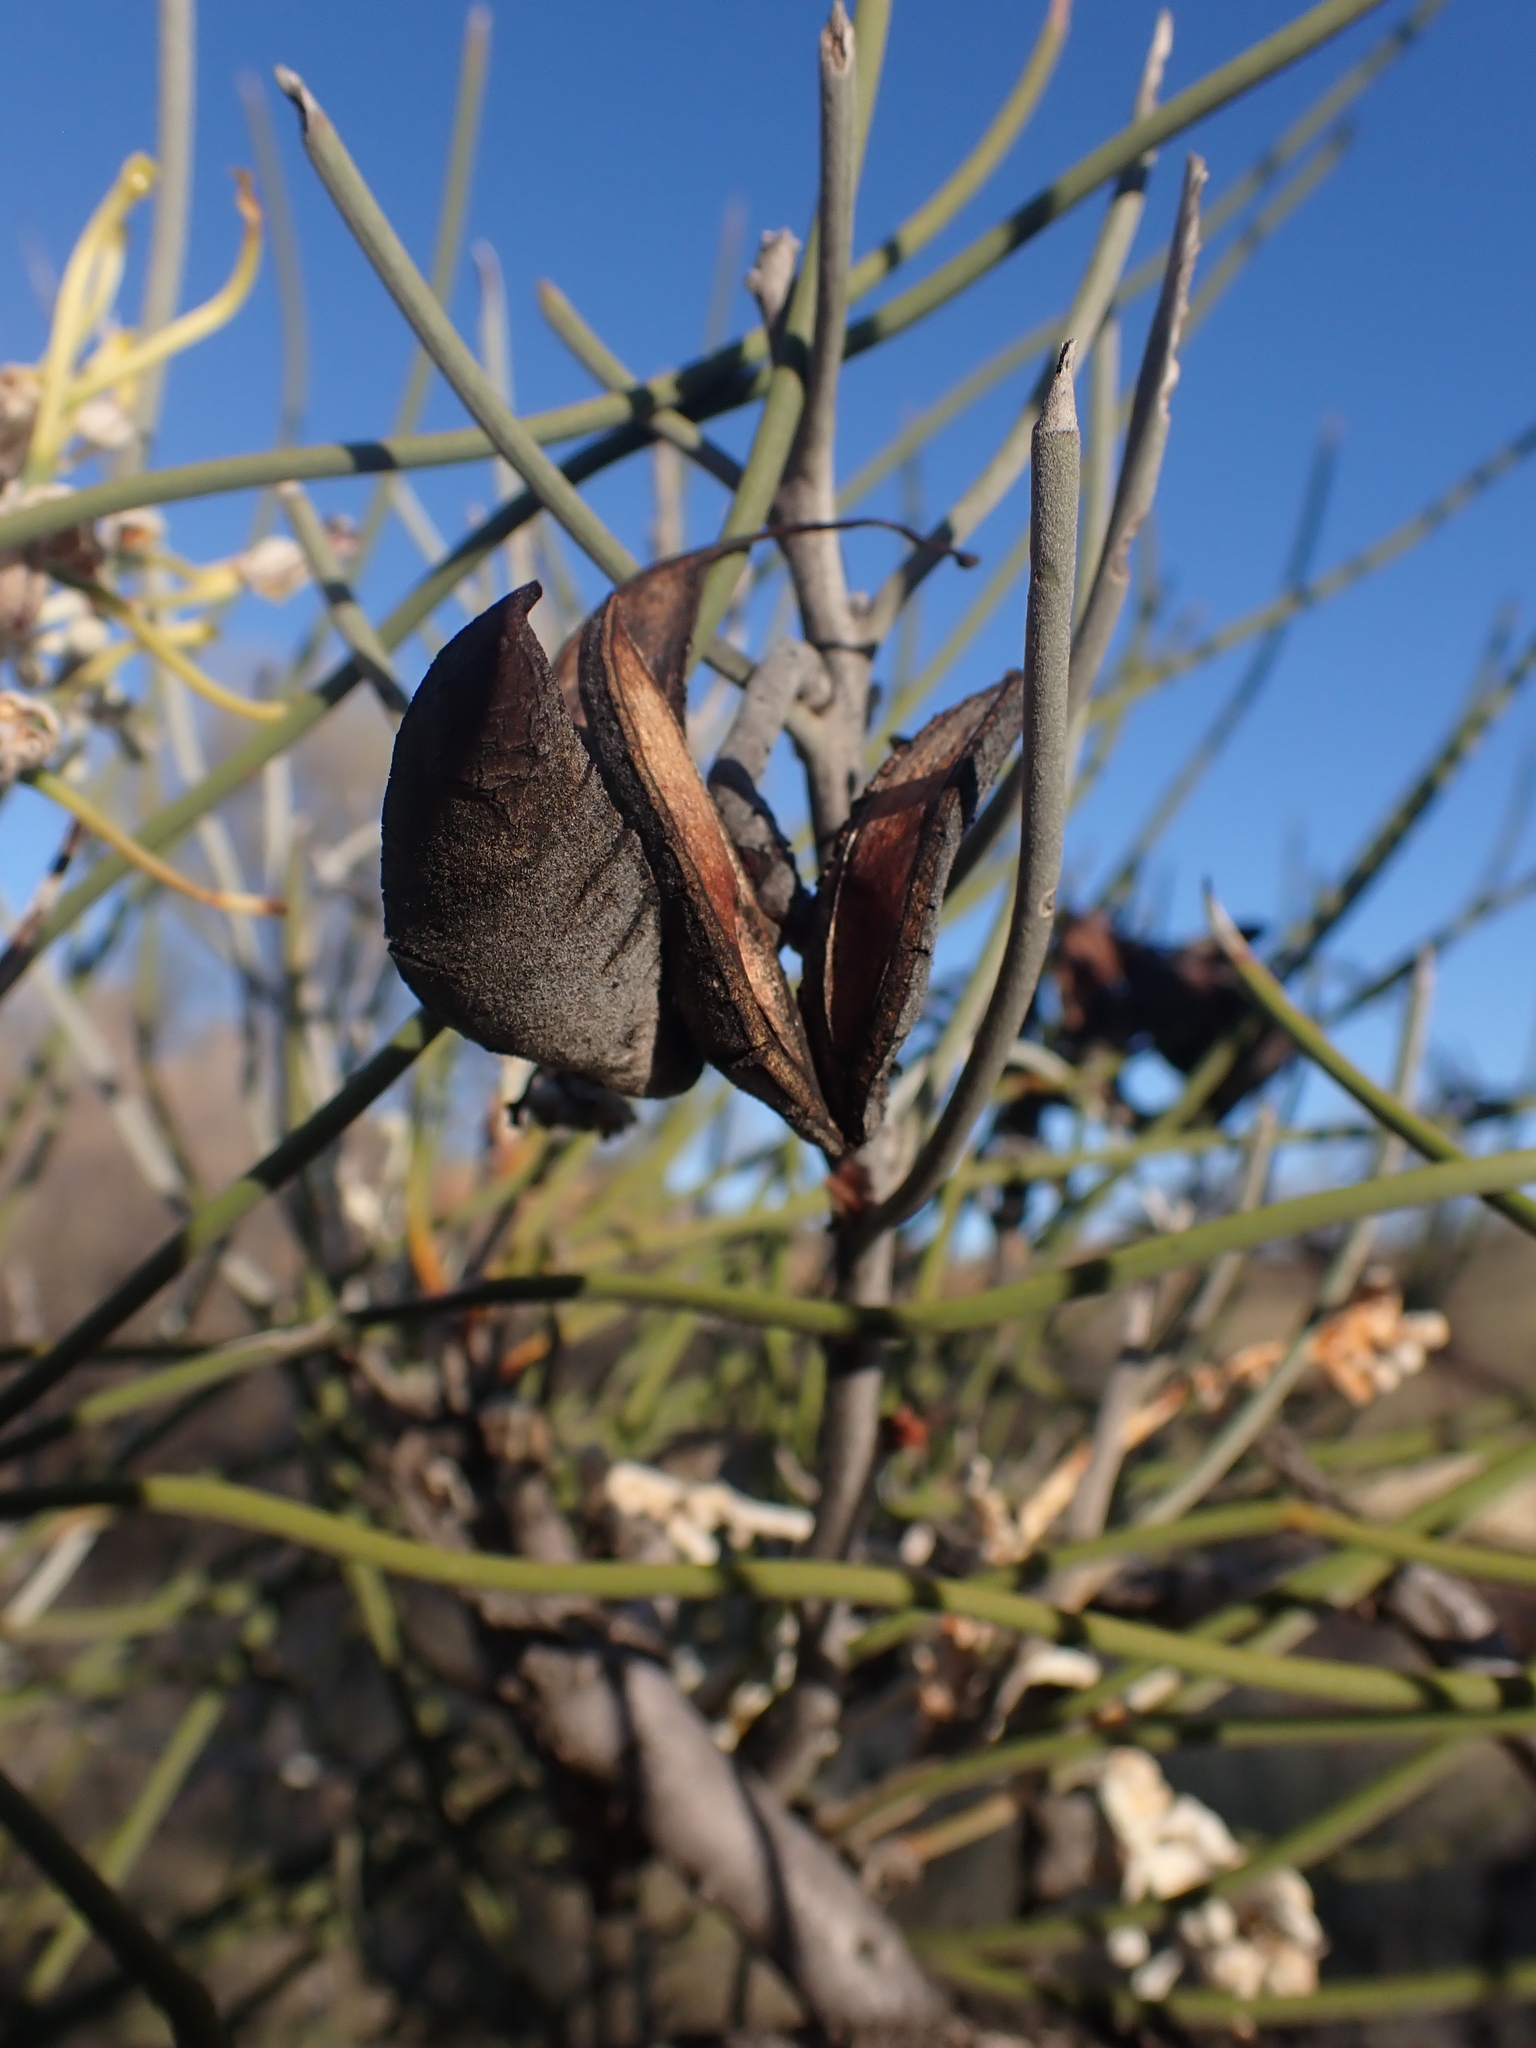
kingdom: Plantae
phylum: Tracheophyta
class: Magnoliopsida
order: Proteales
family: Proteaceae
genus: Hakea
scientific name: Hakea lorea
